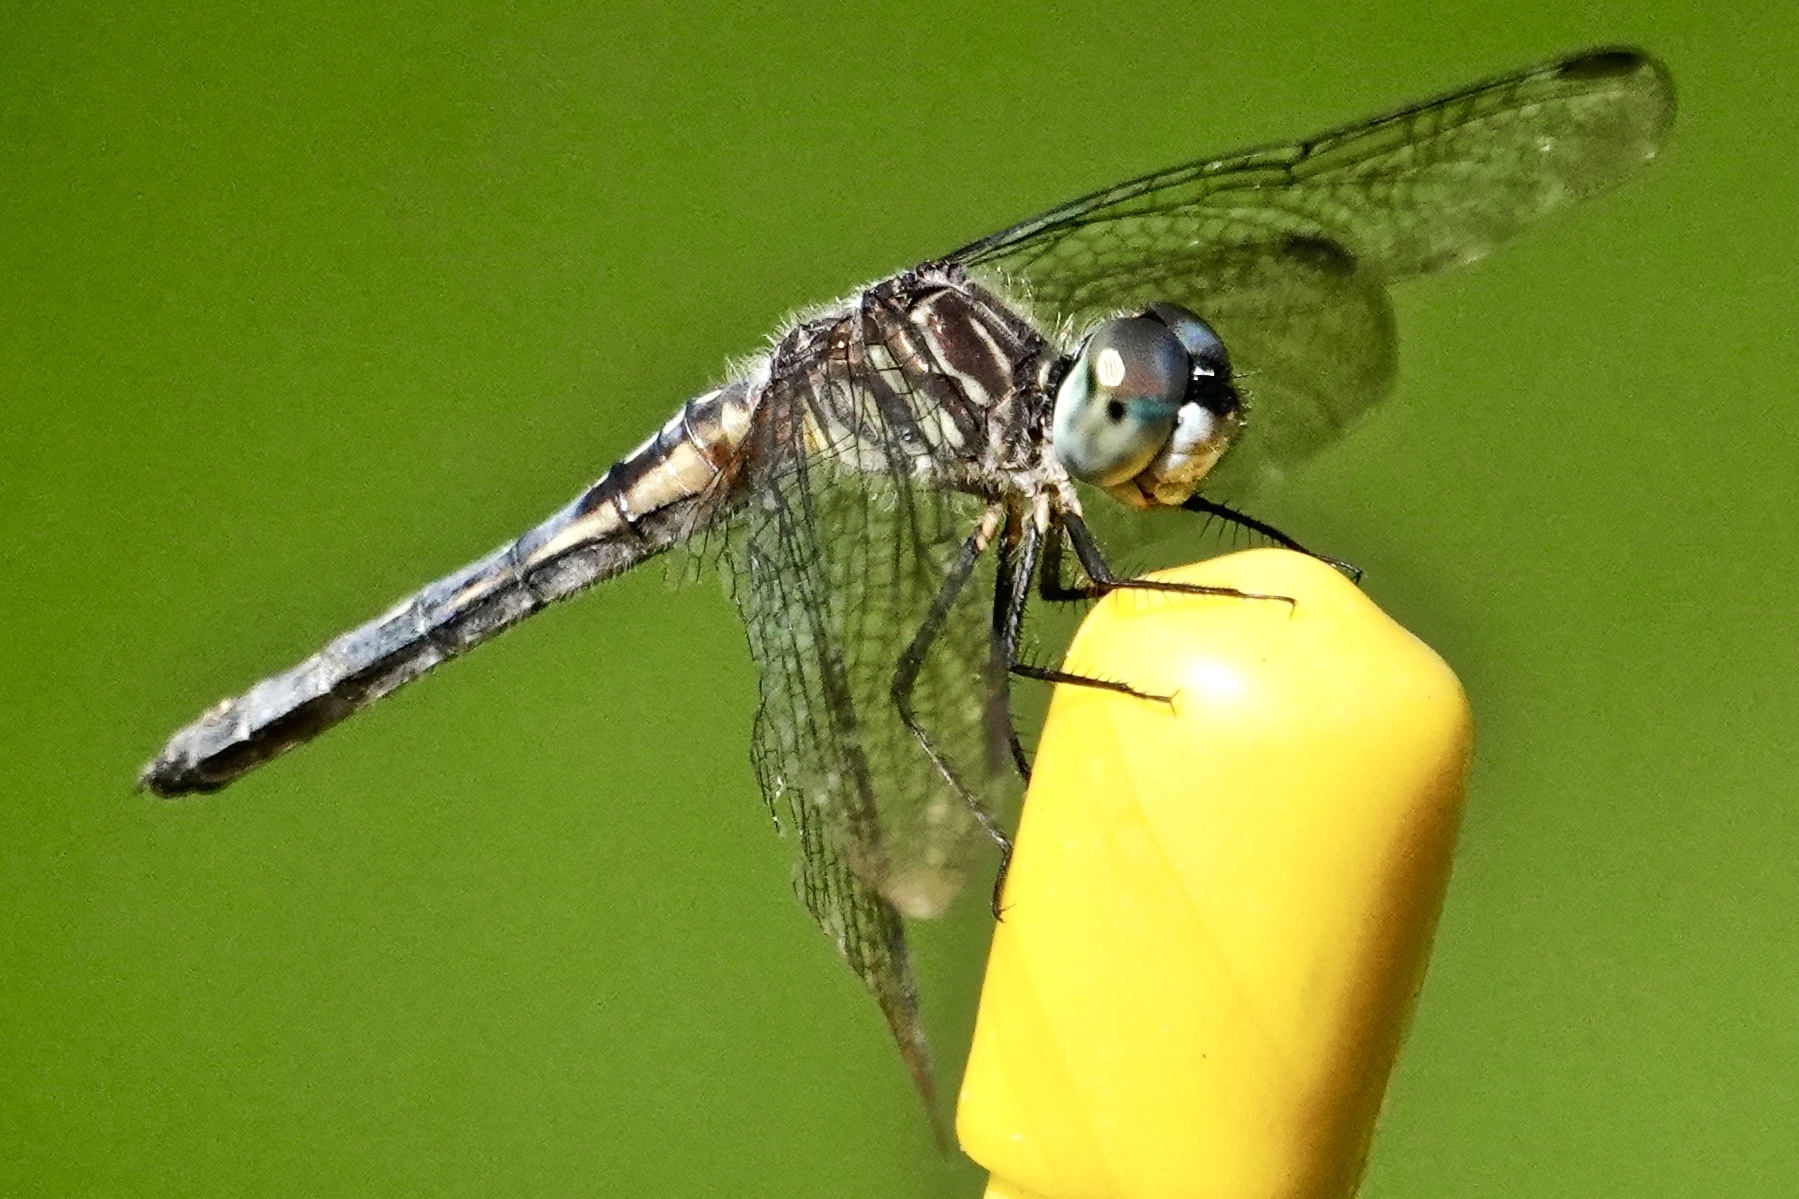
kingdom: Animalia
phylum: Arthropoda
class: Insecta
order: Odonata
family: Libellulidae
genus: Pachydiplax
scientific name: Pachydiplax longipennis
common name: Blue dasher
